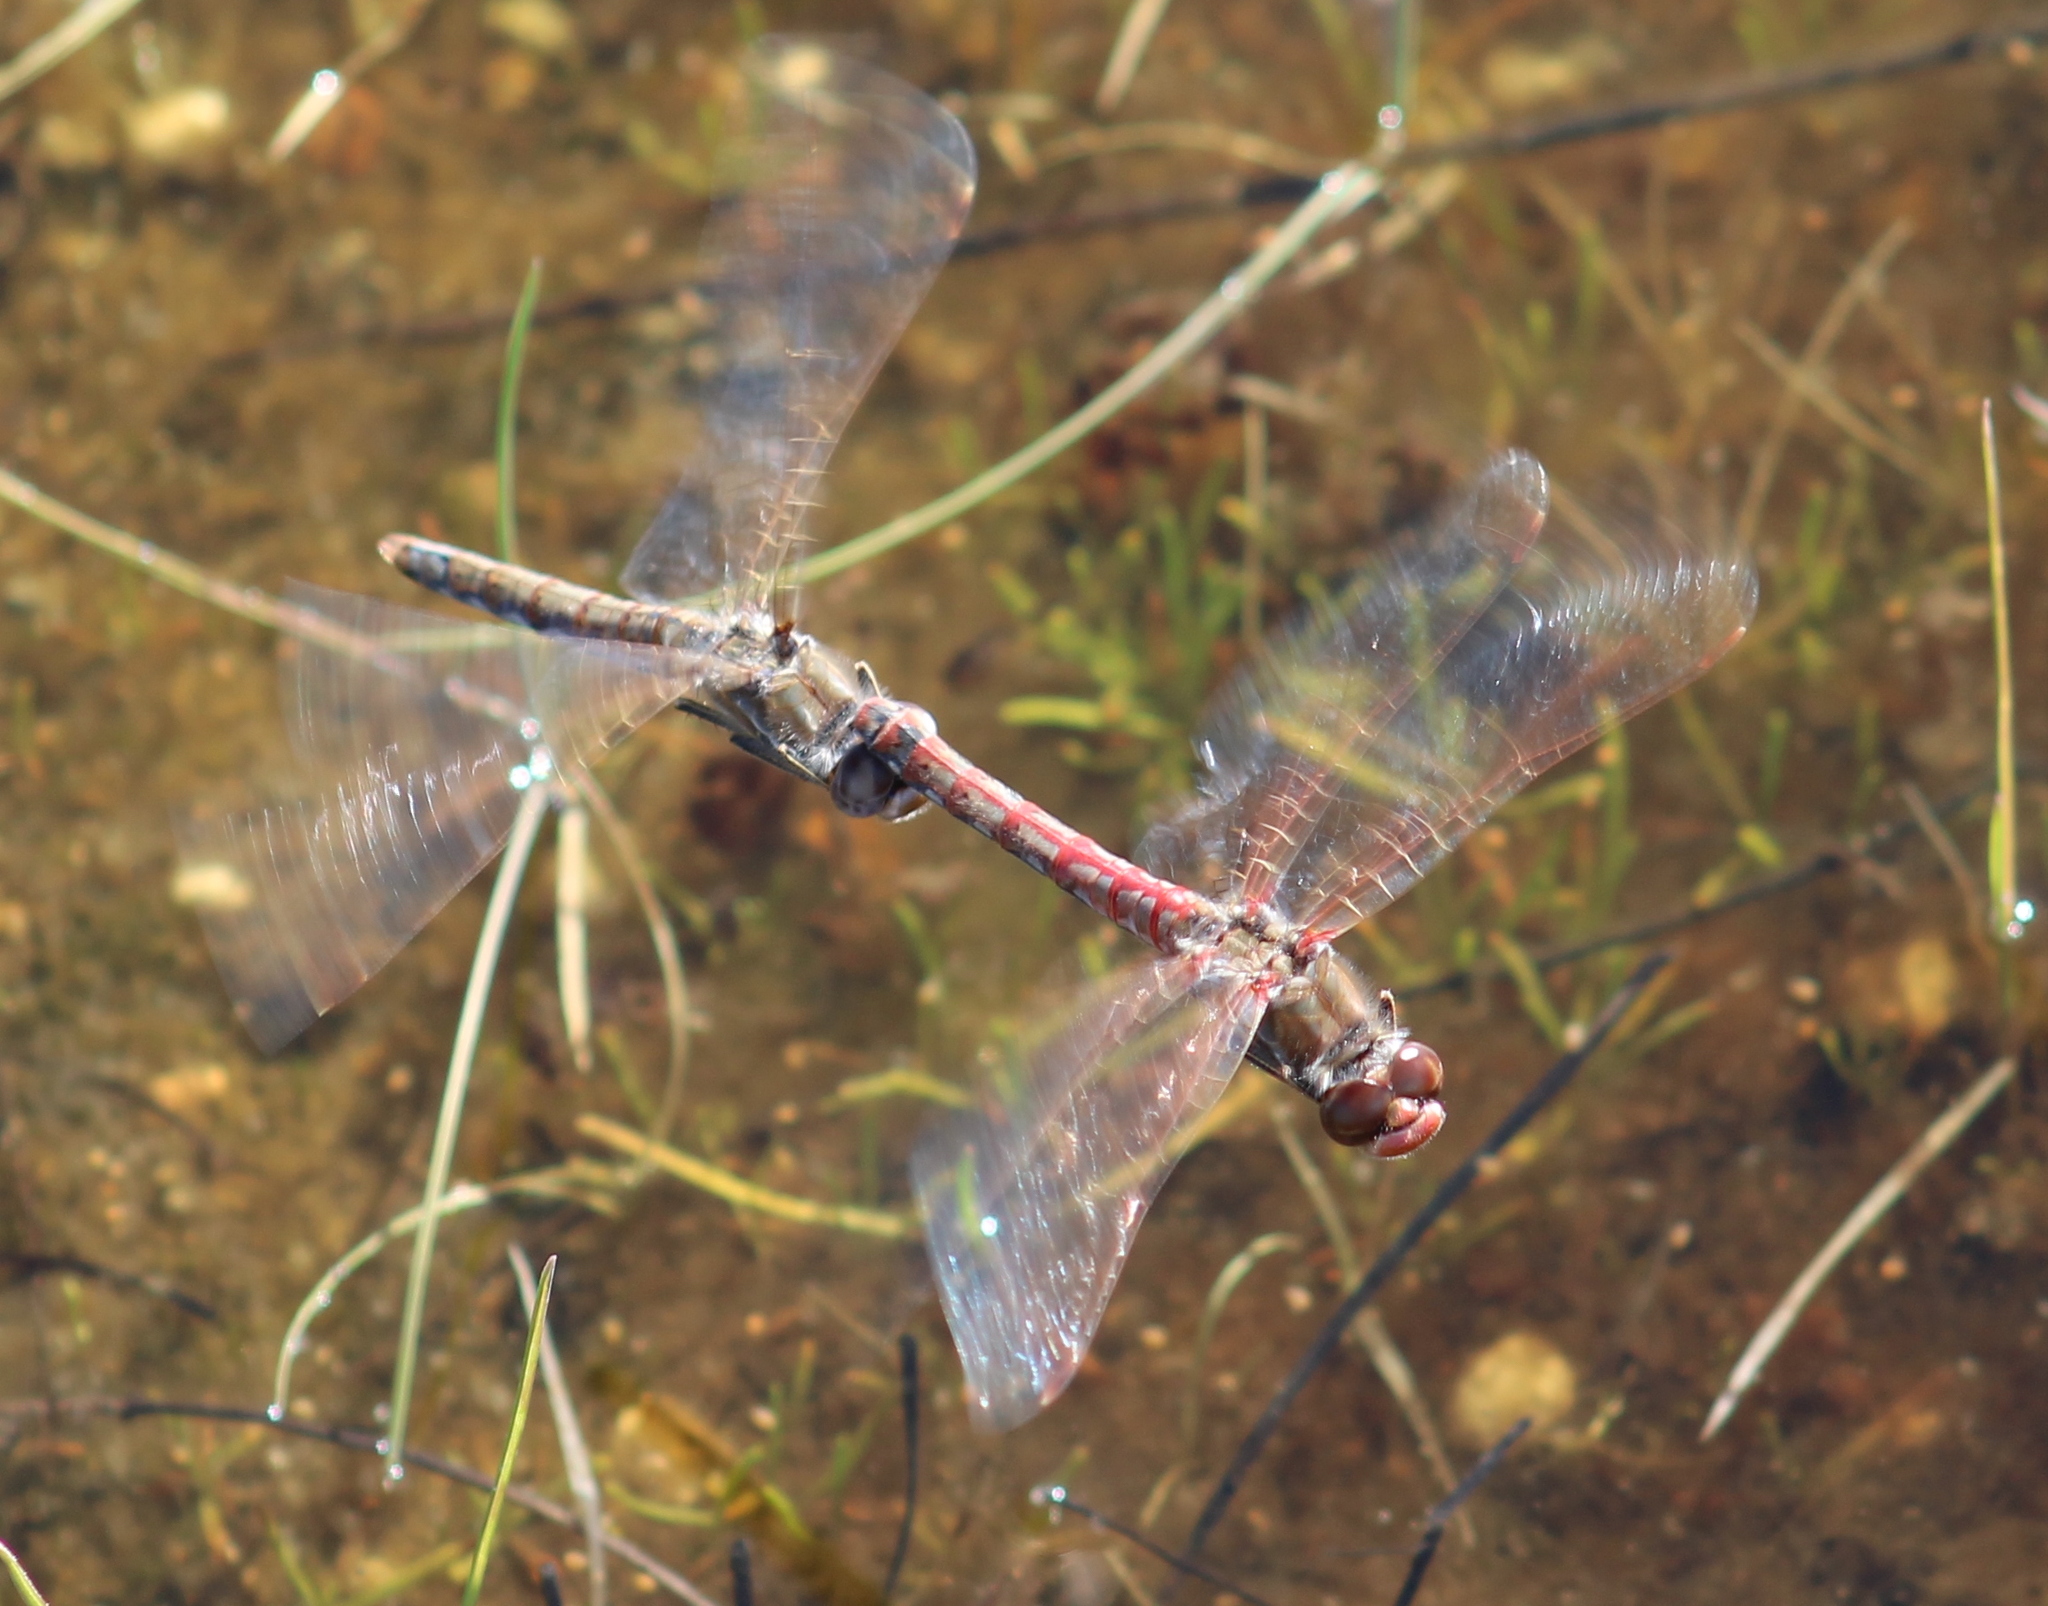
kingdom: Animalia
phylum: Arthropoda
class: Insecta
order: Odonata
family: Libellulidae
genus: Sympetrum
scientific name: Sympetrum corruptum
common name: Variegated meadowhawk
